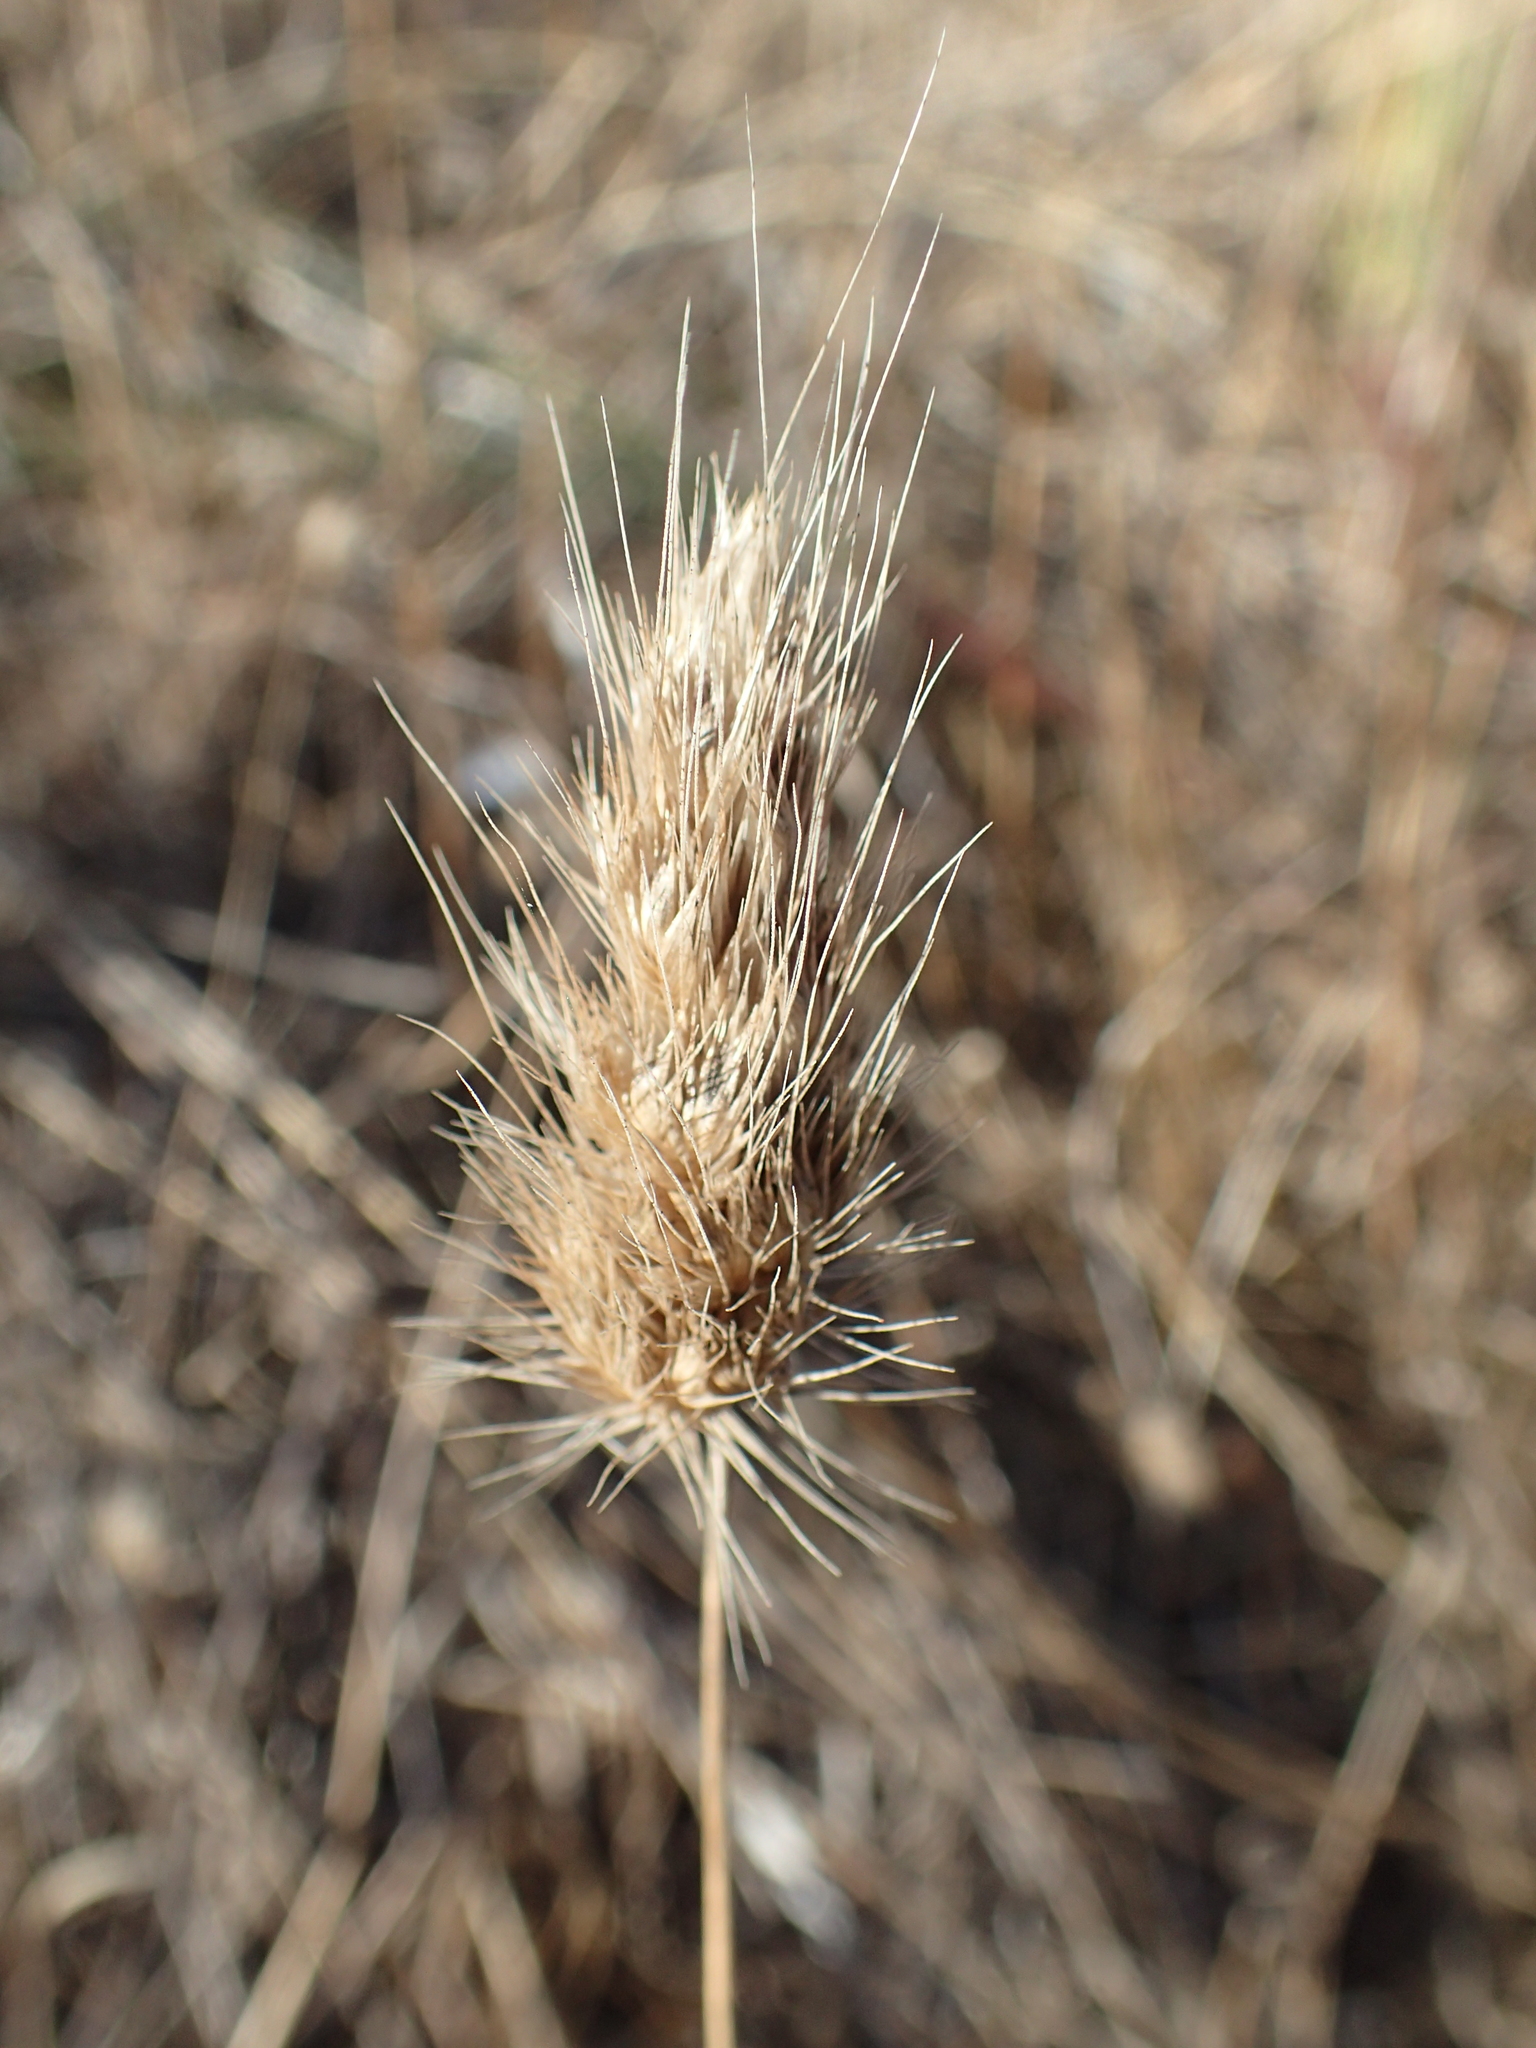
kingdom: Plantae
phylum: Tracheophyta
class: Liliopsida
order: Poales
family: Poaceae
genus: Cynosurus
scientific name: Cynosurus echinatus
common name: Rough dog's-tail
